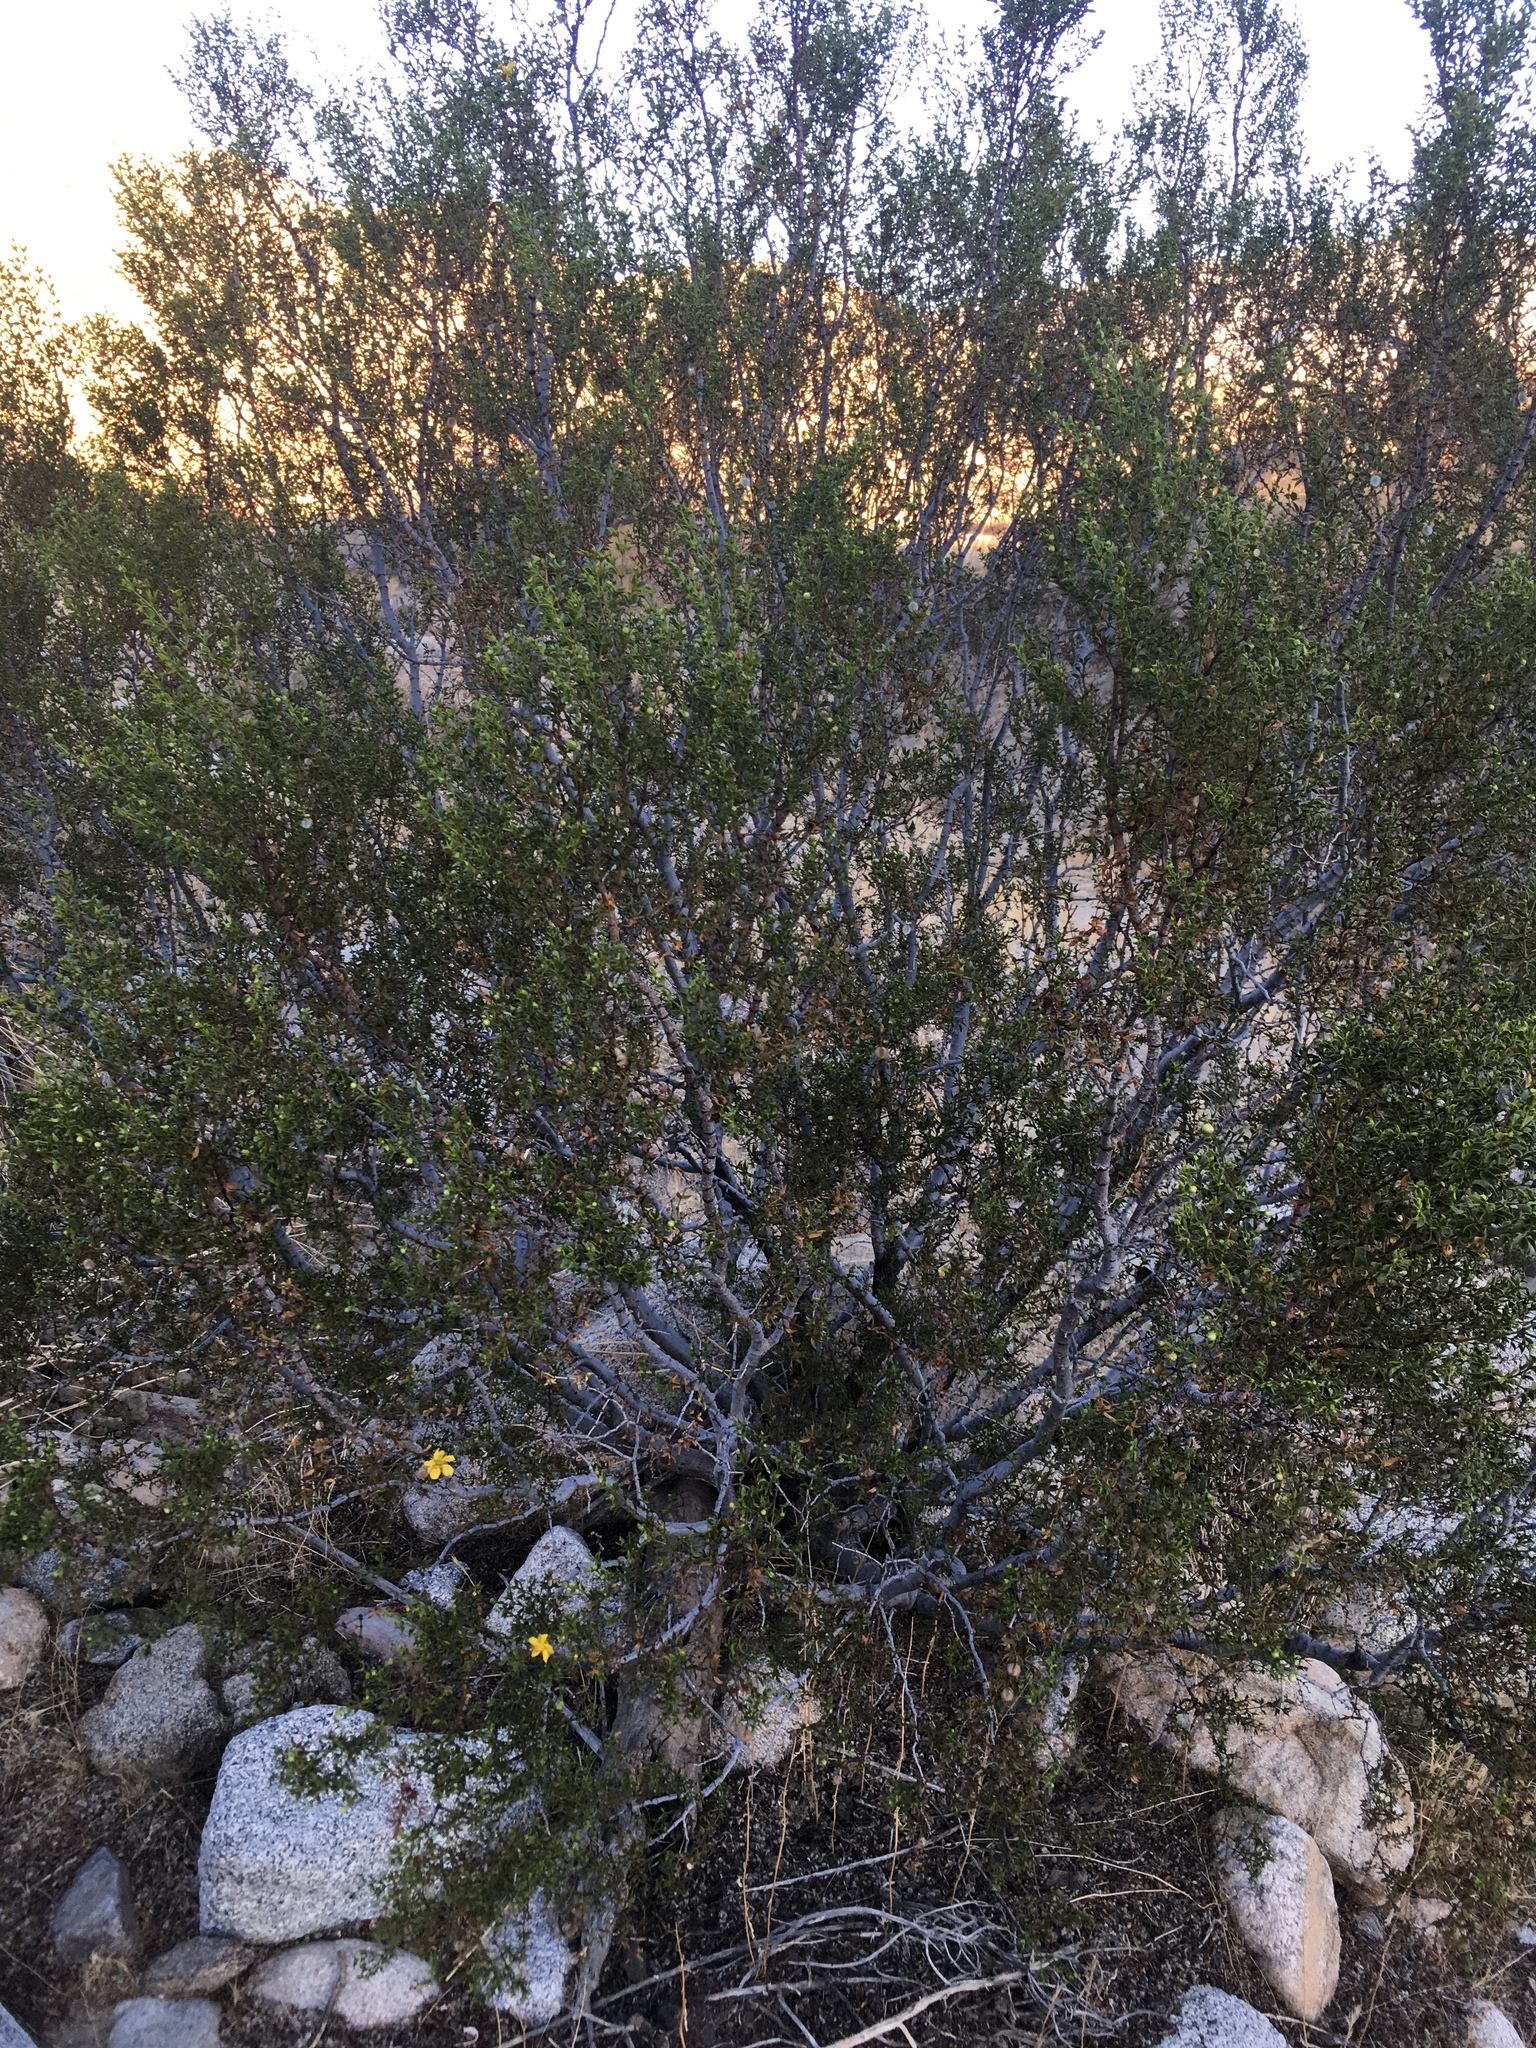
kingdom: Plantae
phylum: Tracheophyta
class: Magnoliopsida
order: Zygophyllales
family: Zygophyllaceae
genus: Larrea
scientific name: Larrea tridentata
